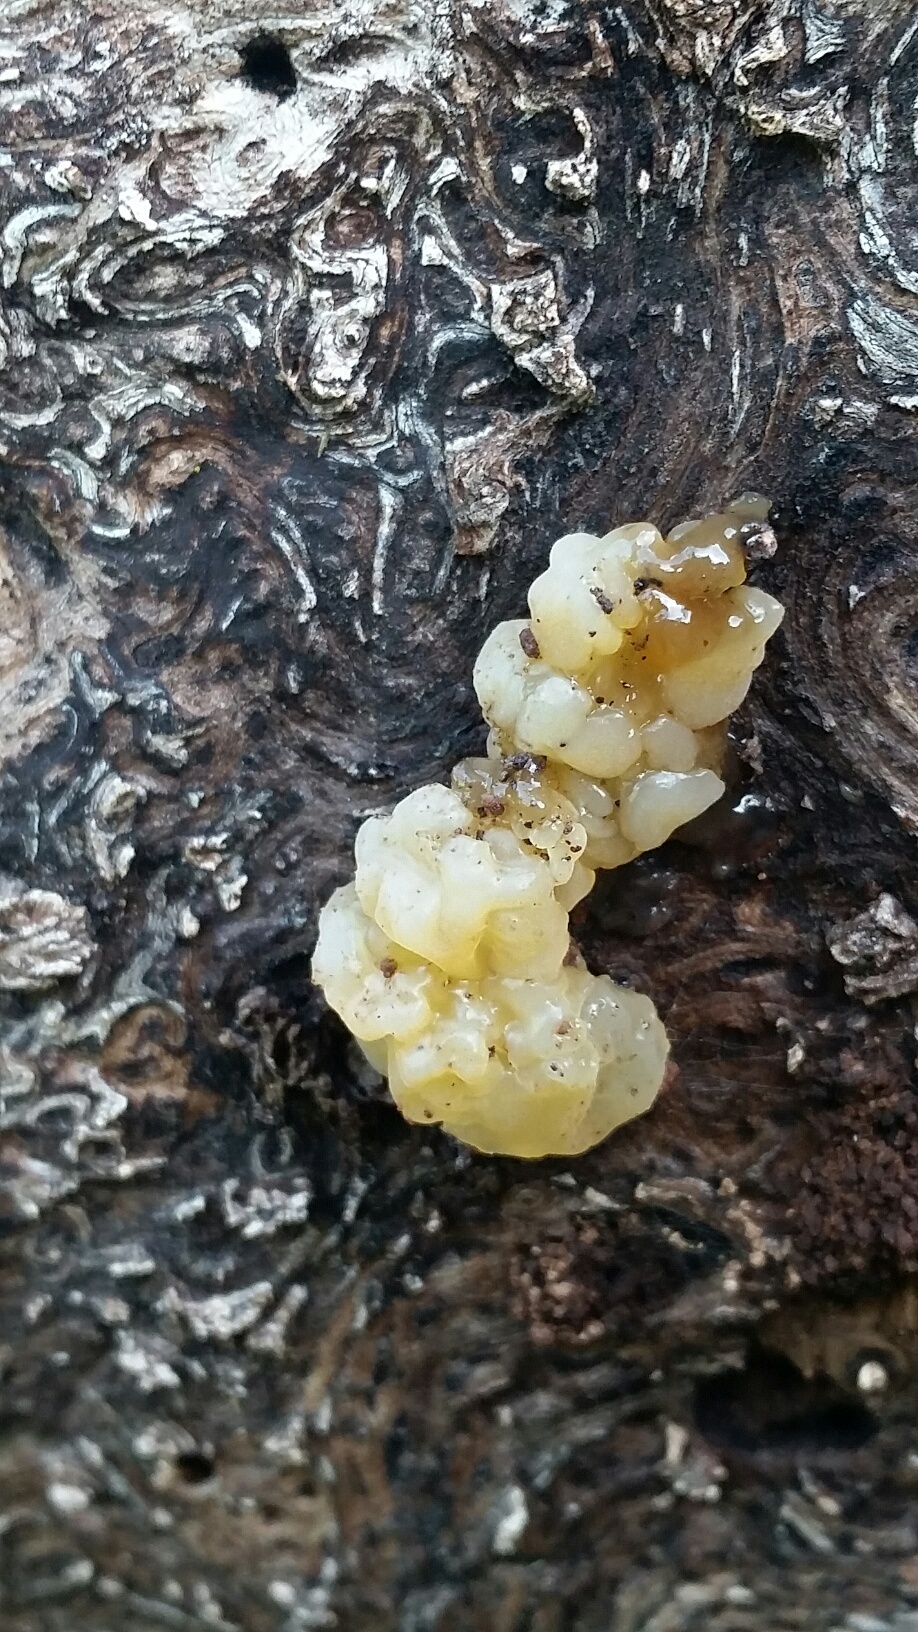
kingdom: Fungi
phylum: Basidiomycota
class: Agaricomycetes
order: Auriculariales
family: Hyaloriaceae
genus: Myxarium
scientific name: Myxarium nucleatum
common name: Crystal brain fungus
